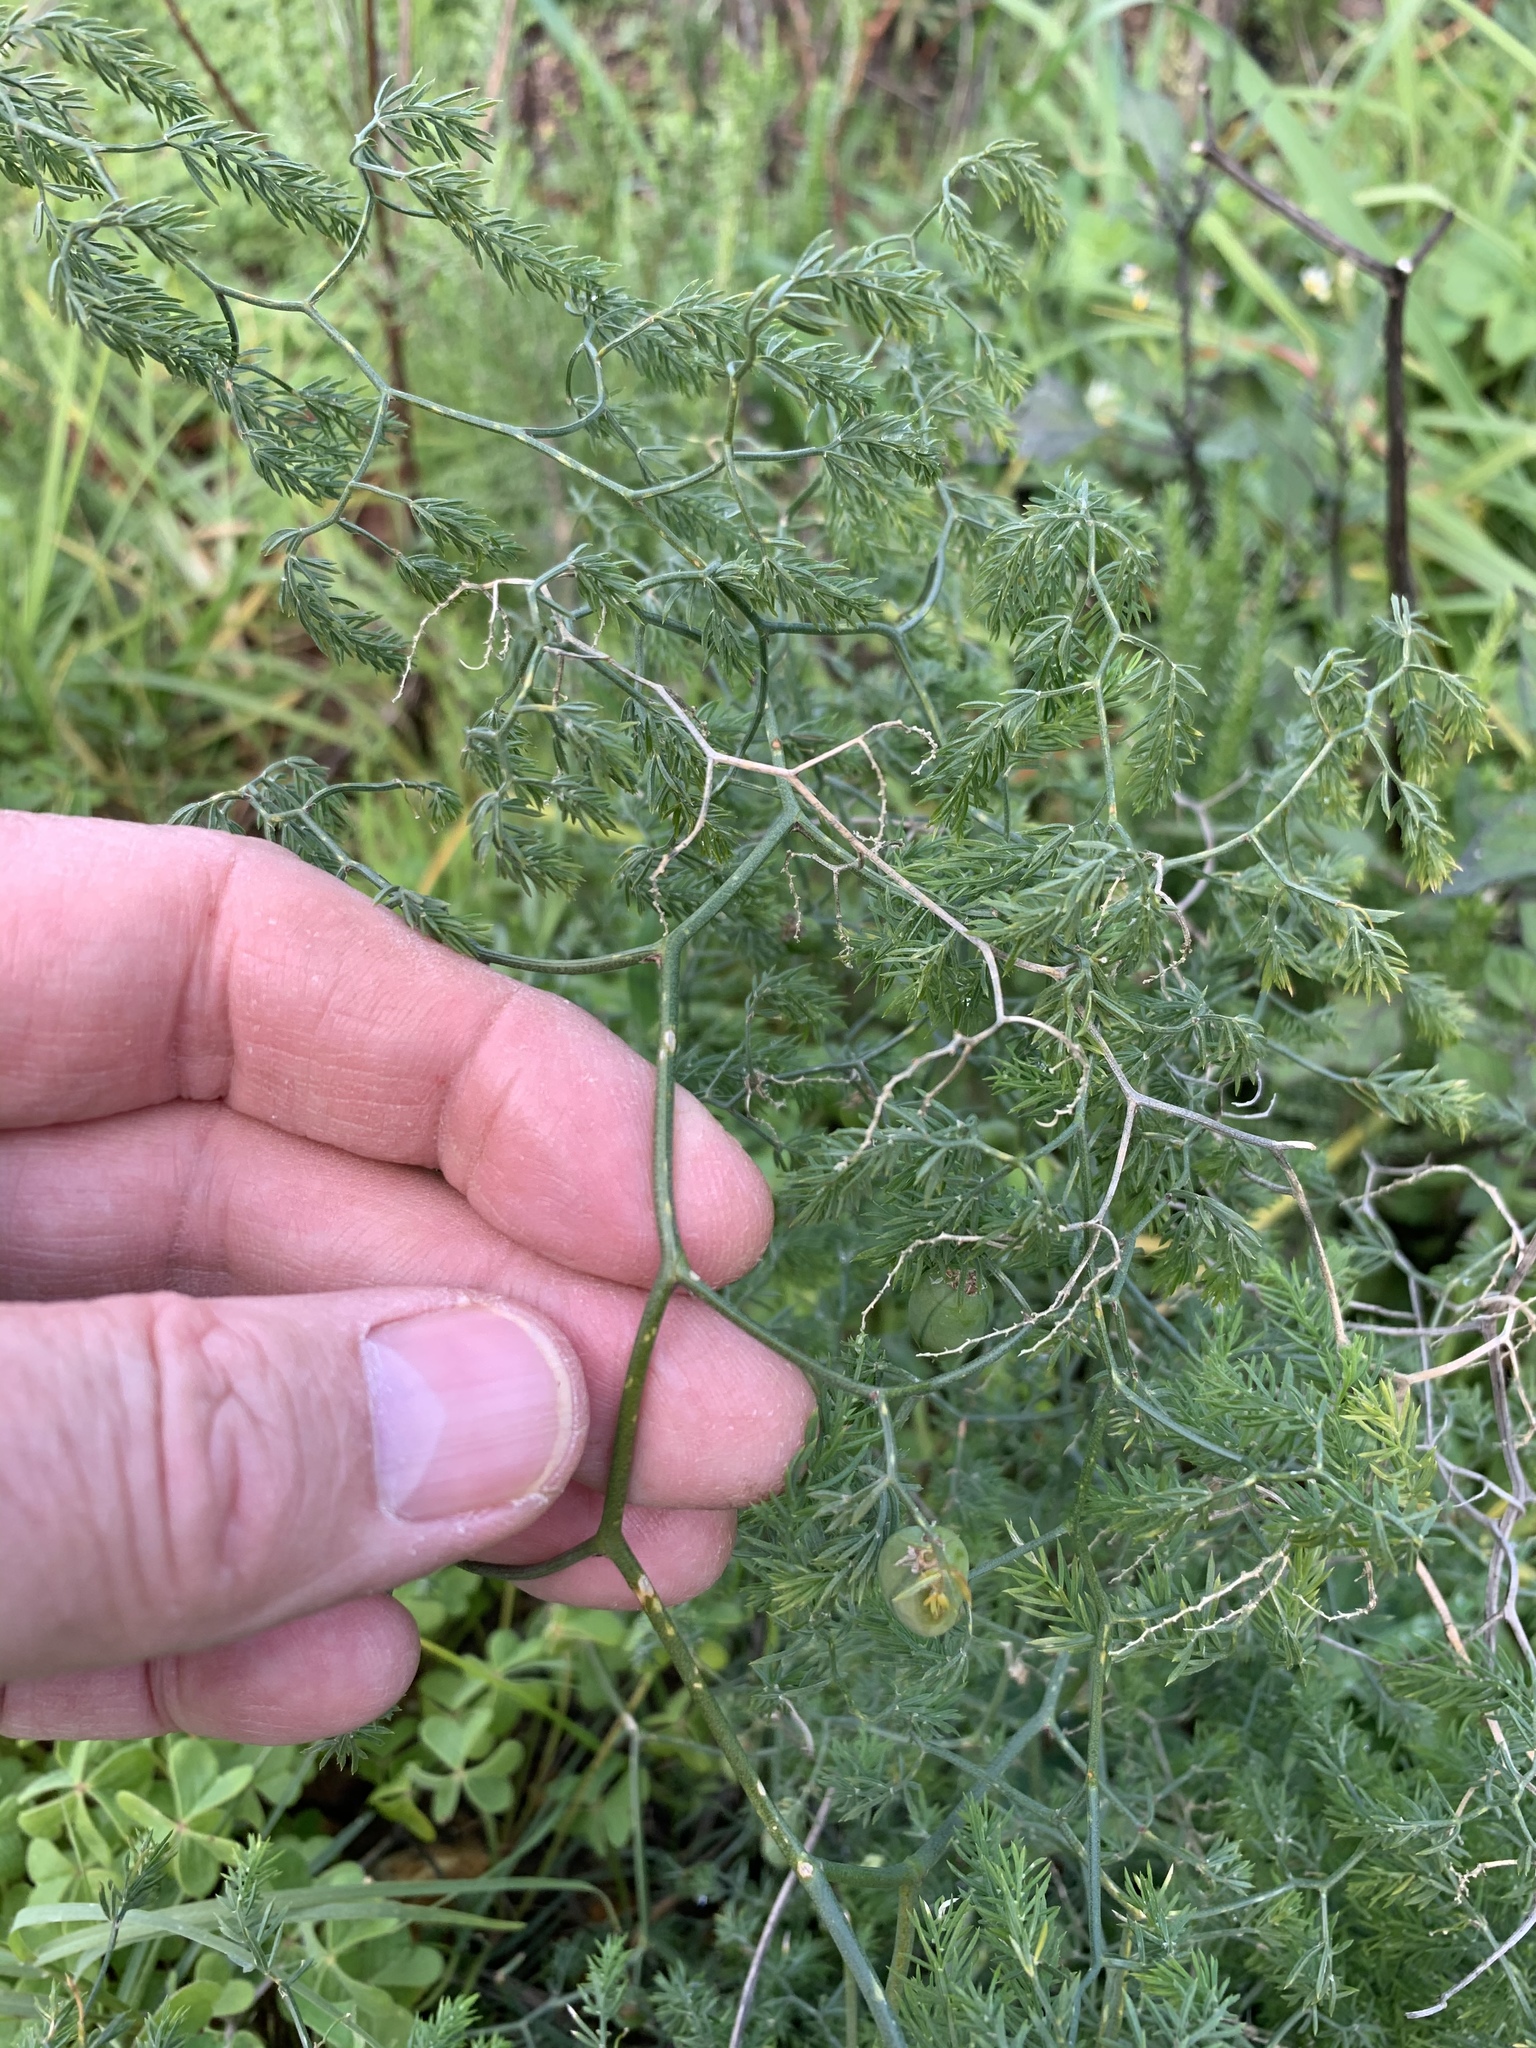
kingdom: Plantae
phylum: Tracheophyta
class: Liliopsida
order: Asparagales
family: Asparagaceae
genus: Asparagus
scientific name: Asparagus declinatus
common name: Bridal-creeper
